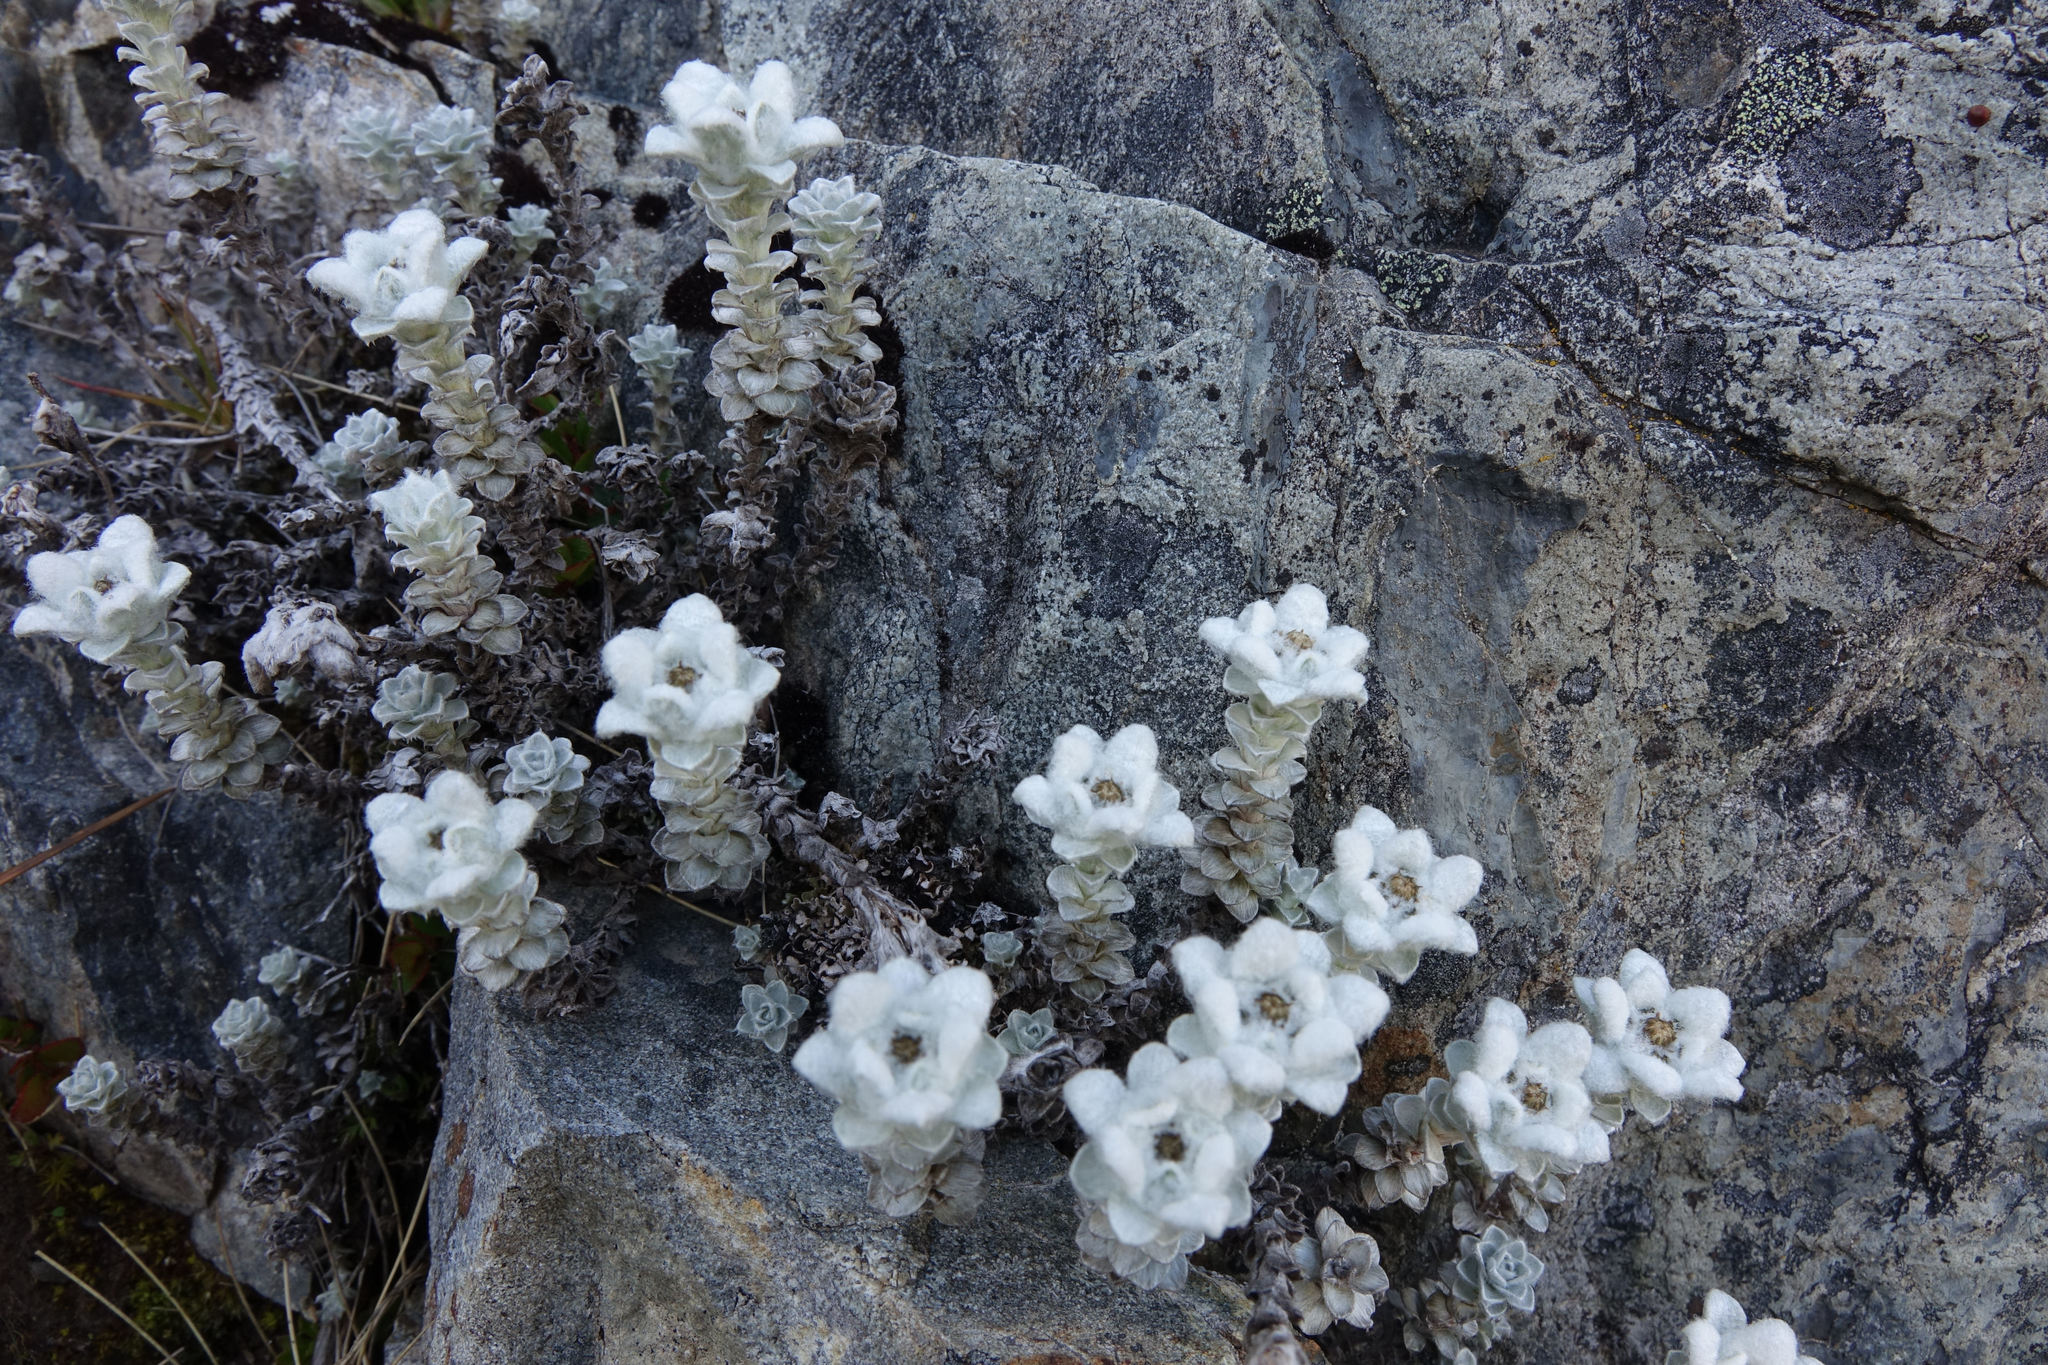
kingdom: Plantae
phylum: Tracheophyta
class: Magnoliopsida
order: Asterales
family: Asteraceae
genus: Leucogenes
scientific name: Leucogenes grandiceps
